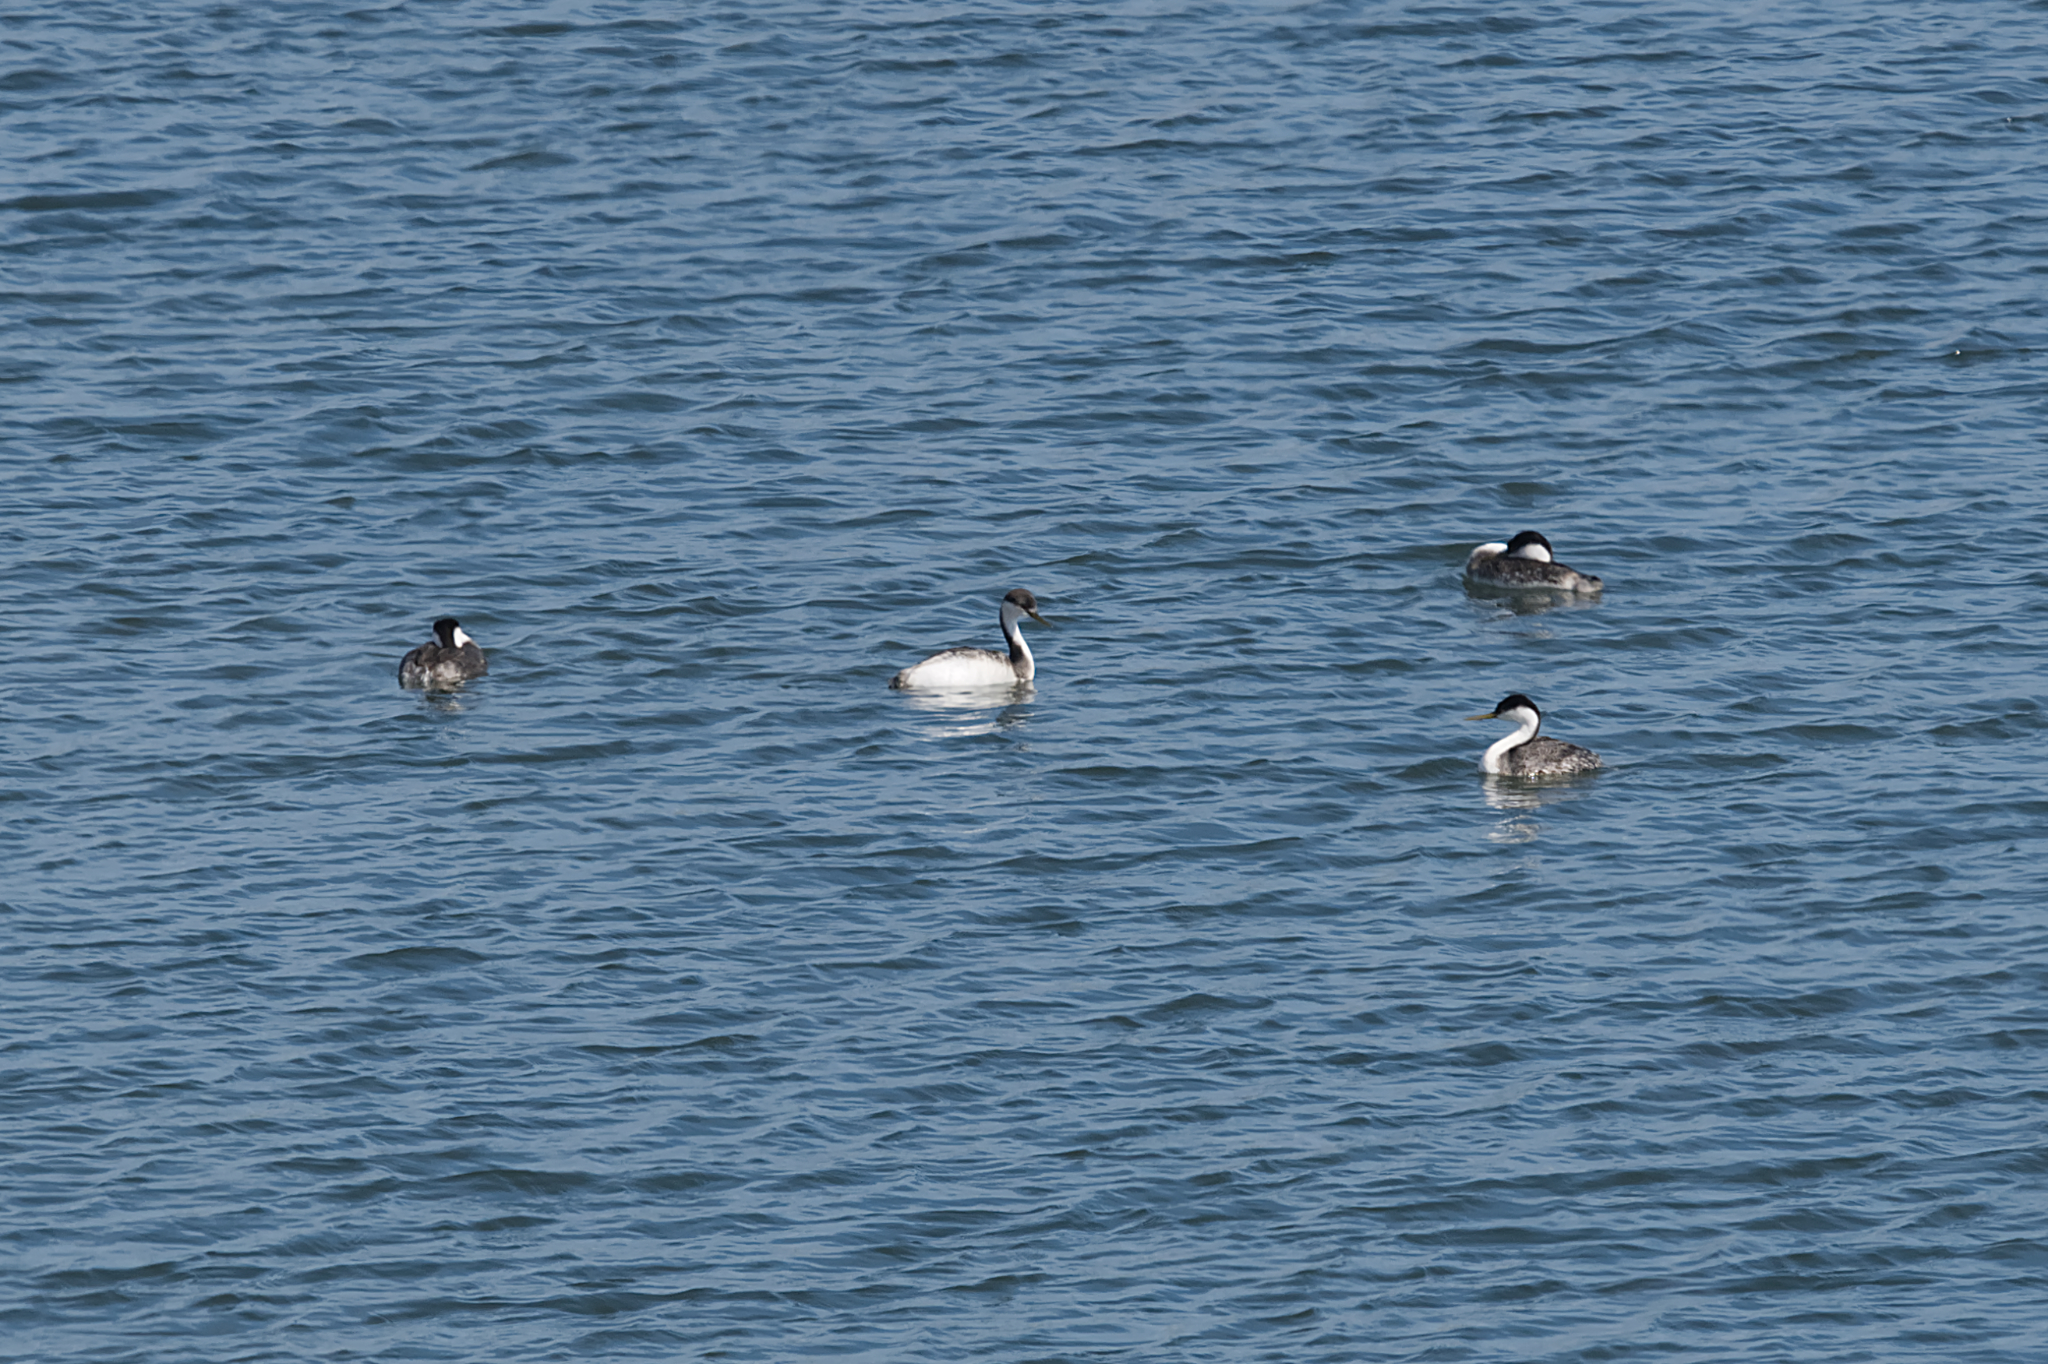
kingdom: Animalia
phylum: Chordata
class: Aves
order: Podicipediformes
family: Podicipedidae
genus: Aechmophorus
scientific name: Aechmophorus occidentalis
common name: Western grebe
